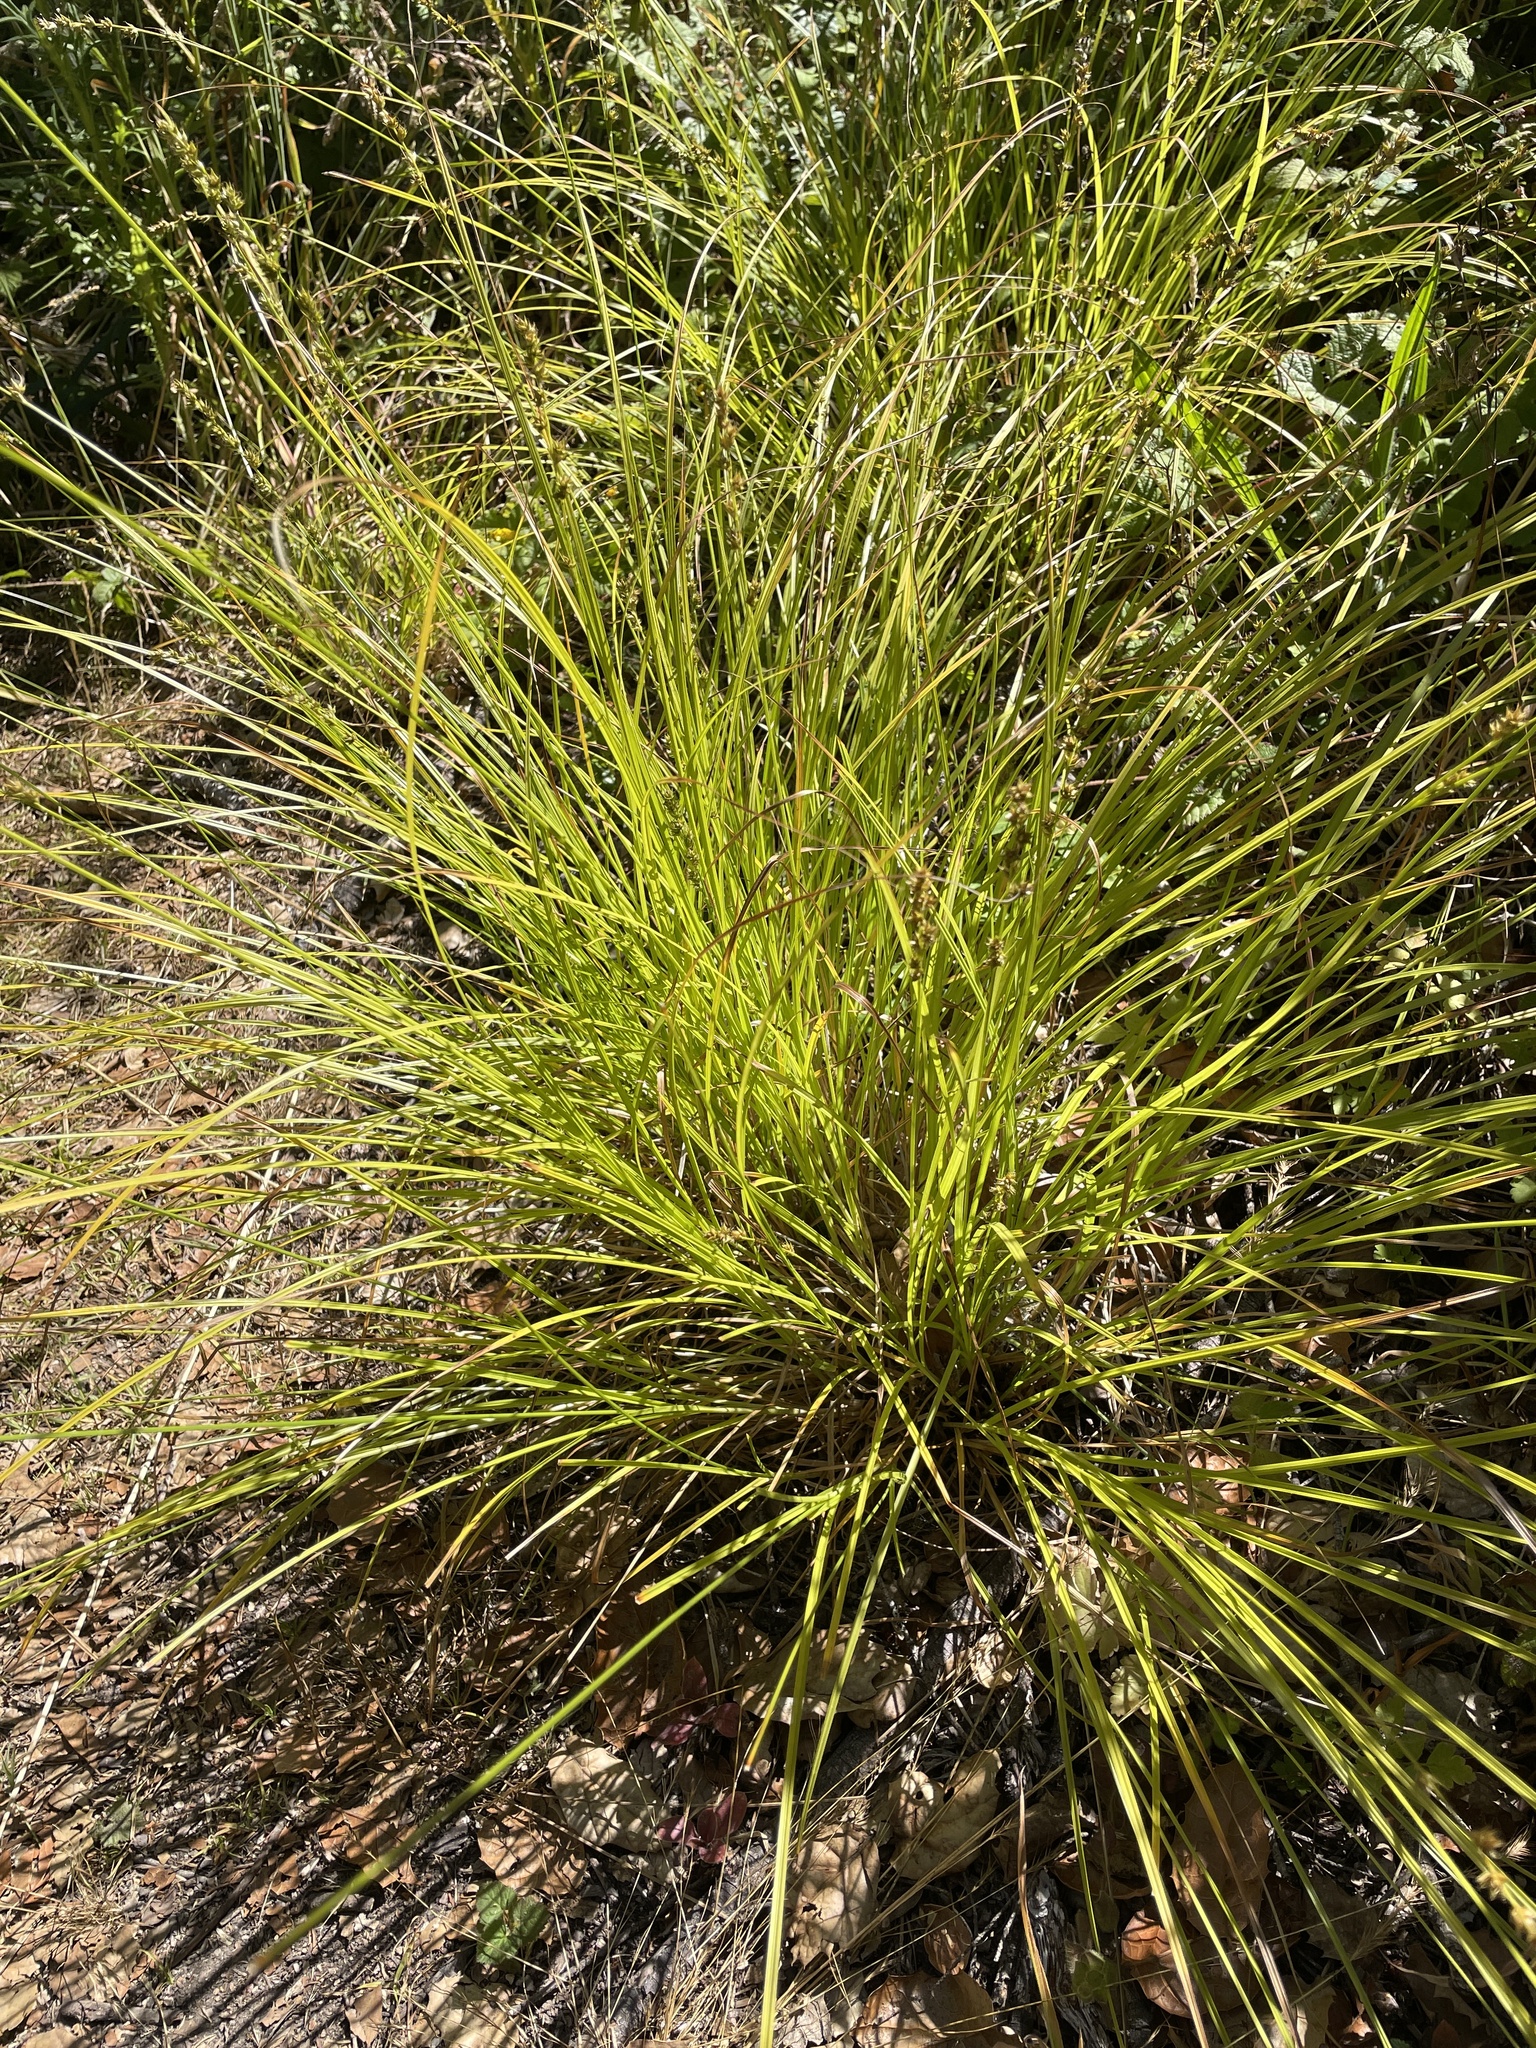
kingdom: Plantae
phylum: Tracheophyta
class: Liliopsida
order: Poales
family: Cyperaceae
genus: Carex
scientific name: Carex divulsa
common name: Grassland sedge
